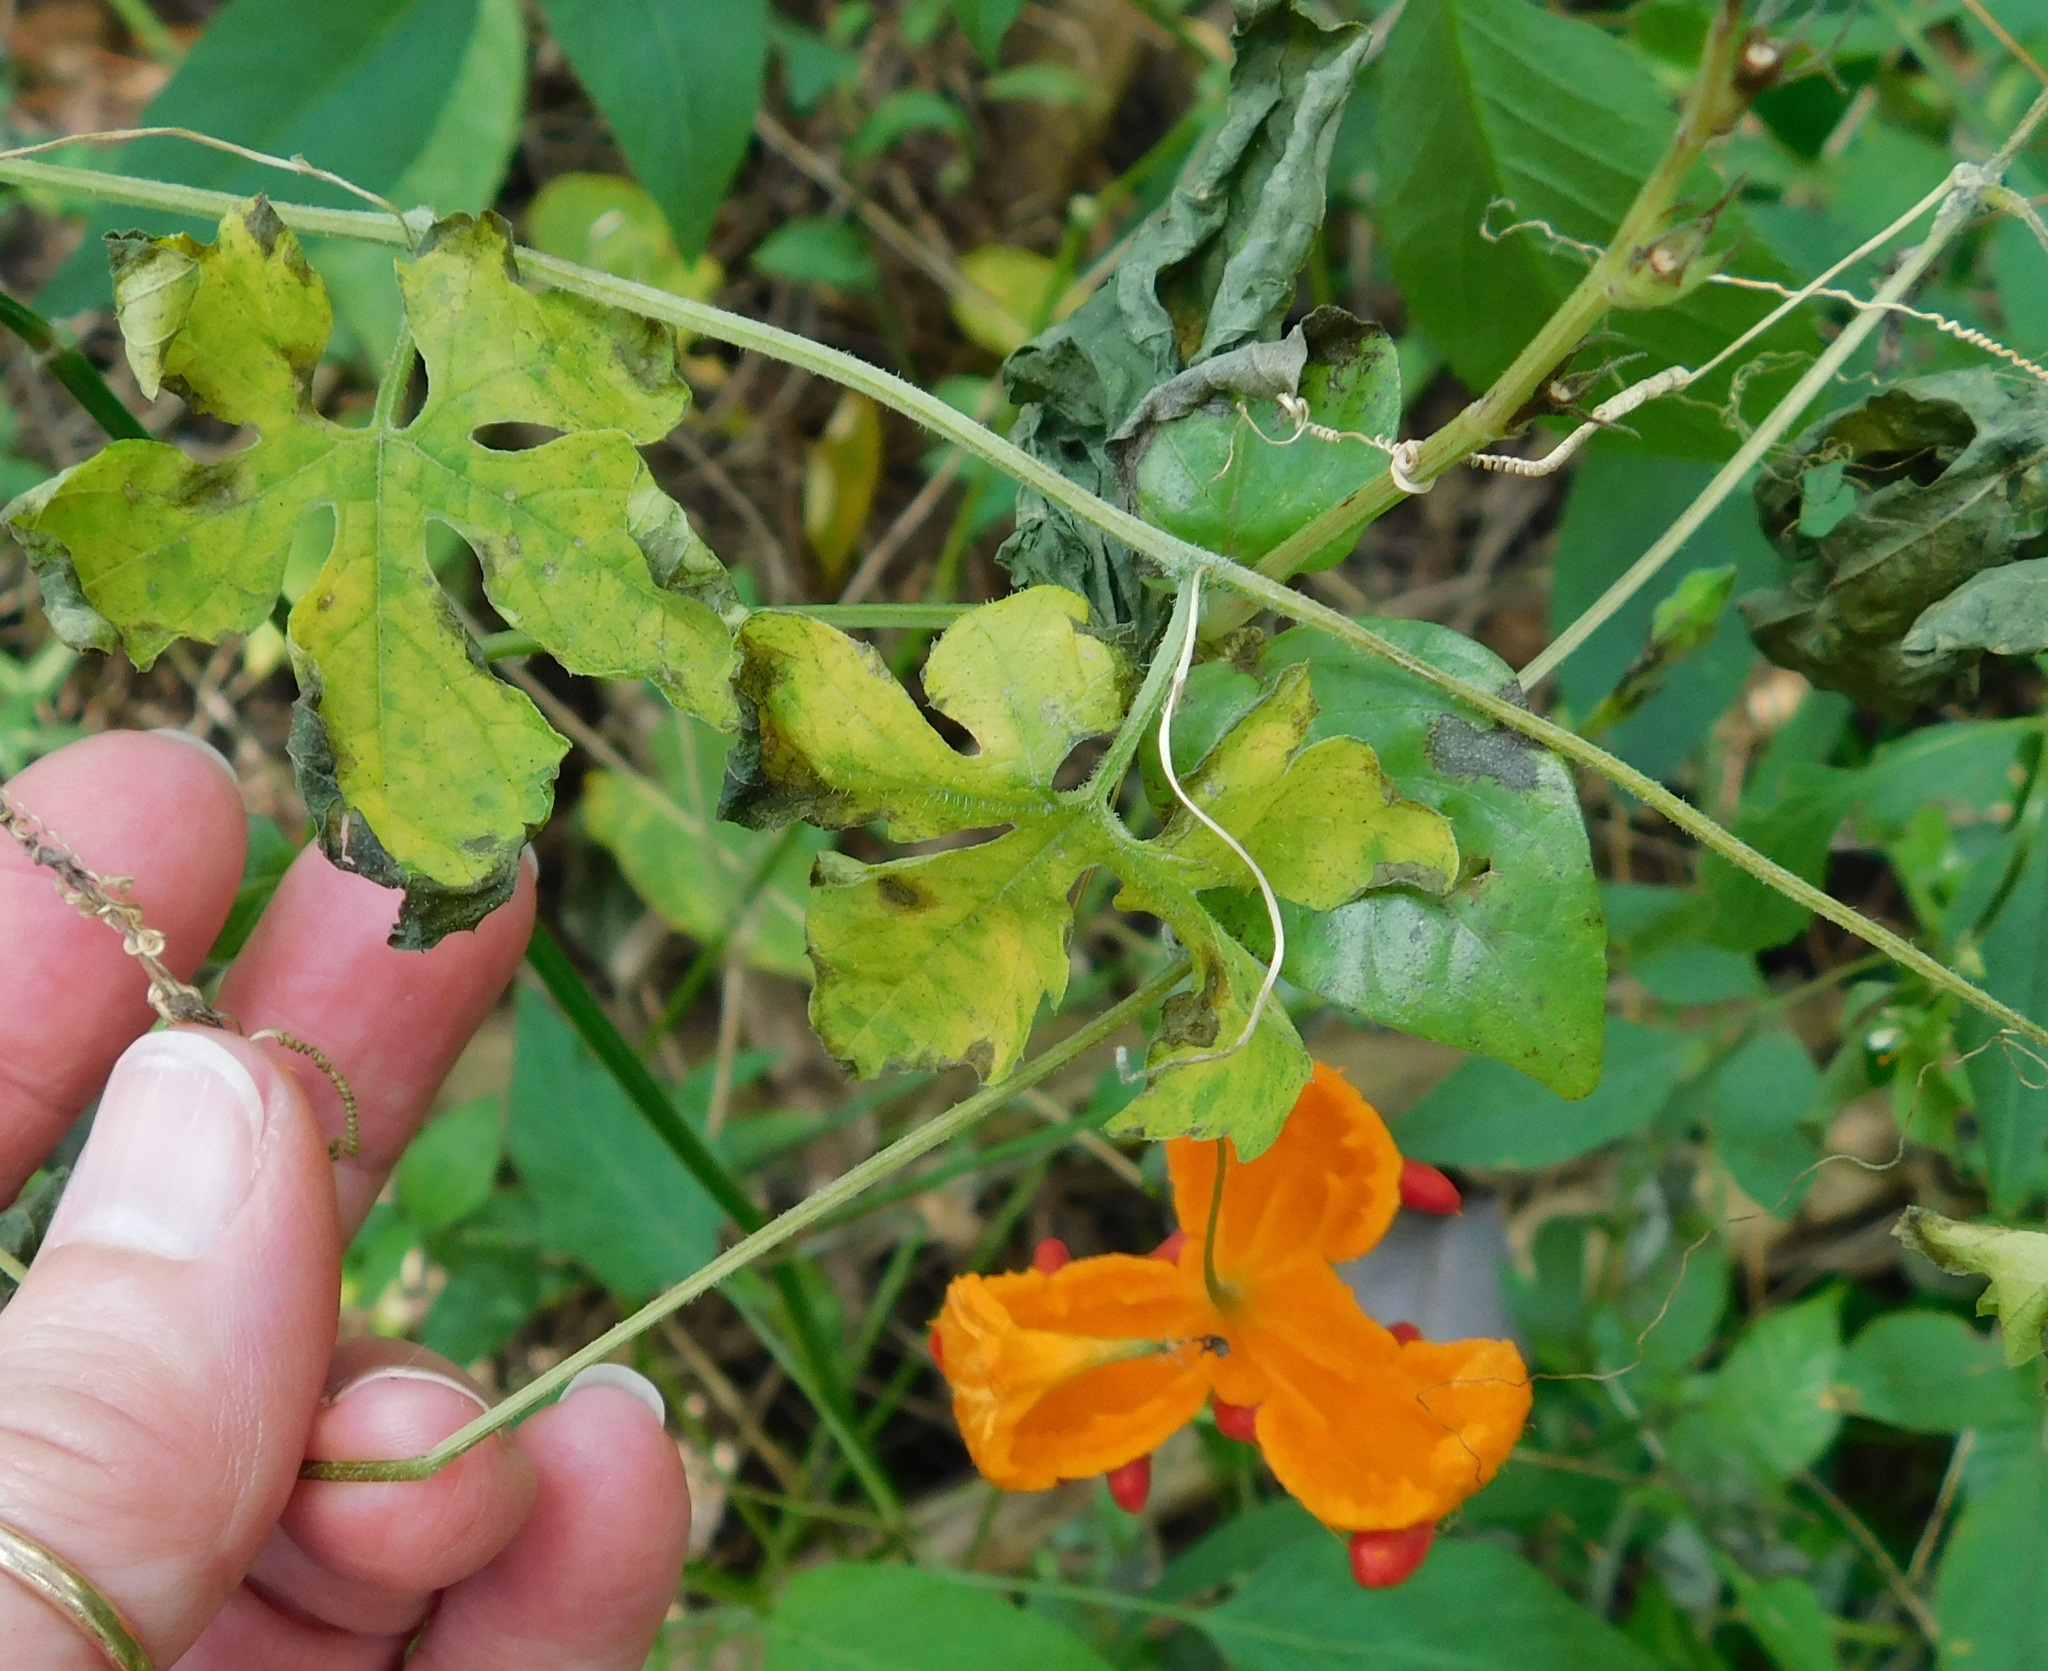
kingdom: Plantae
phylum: Tracheophyta
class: Magnoliopsida
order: Cucurbitales
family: Cucurbitaceae
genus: Momordica
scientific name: Momordica charantia
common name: Balsampear
